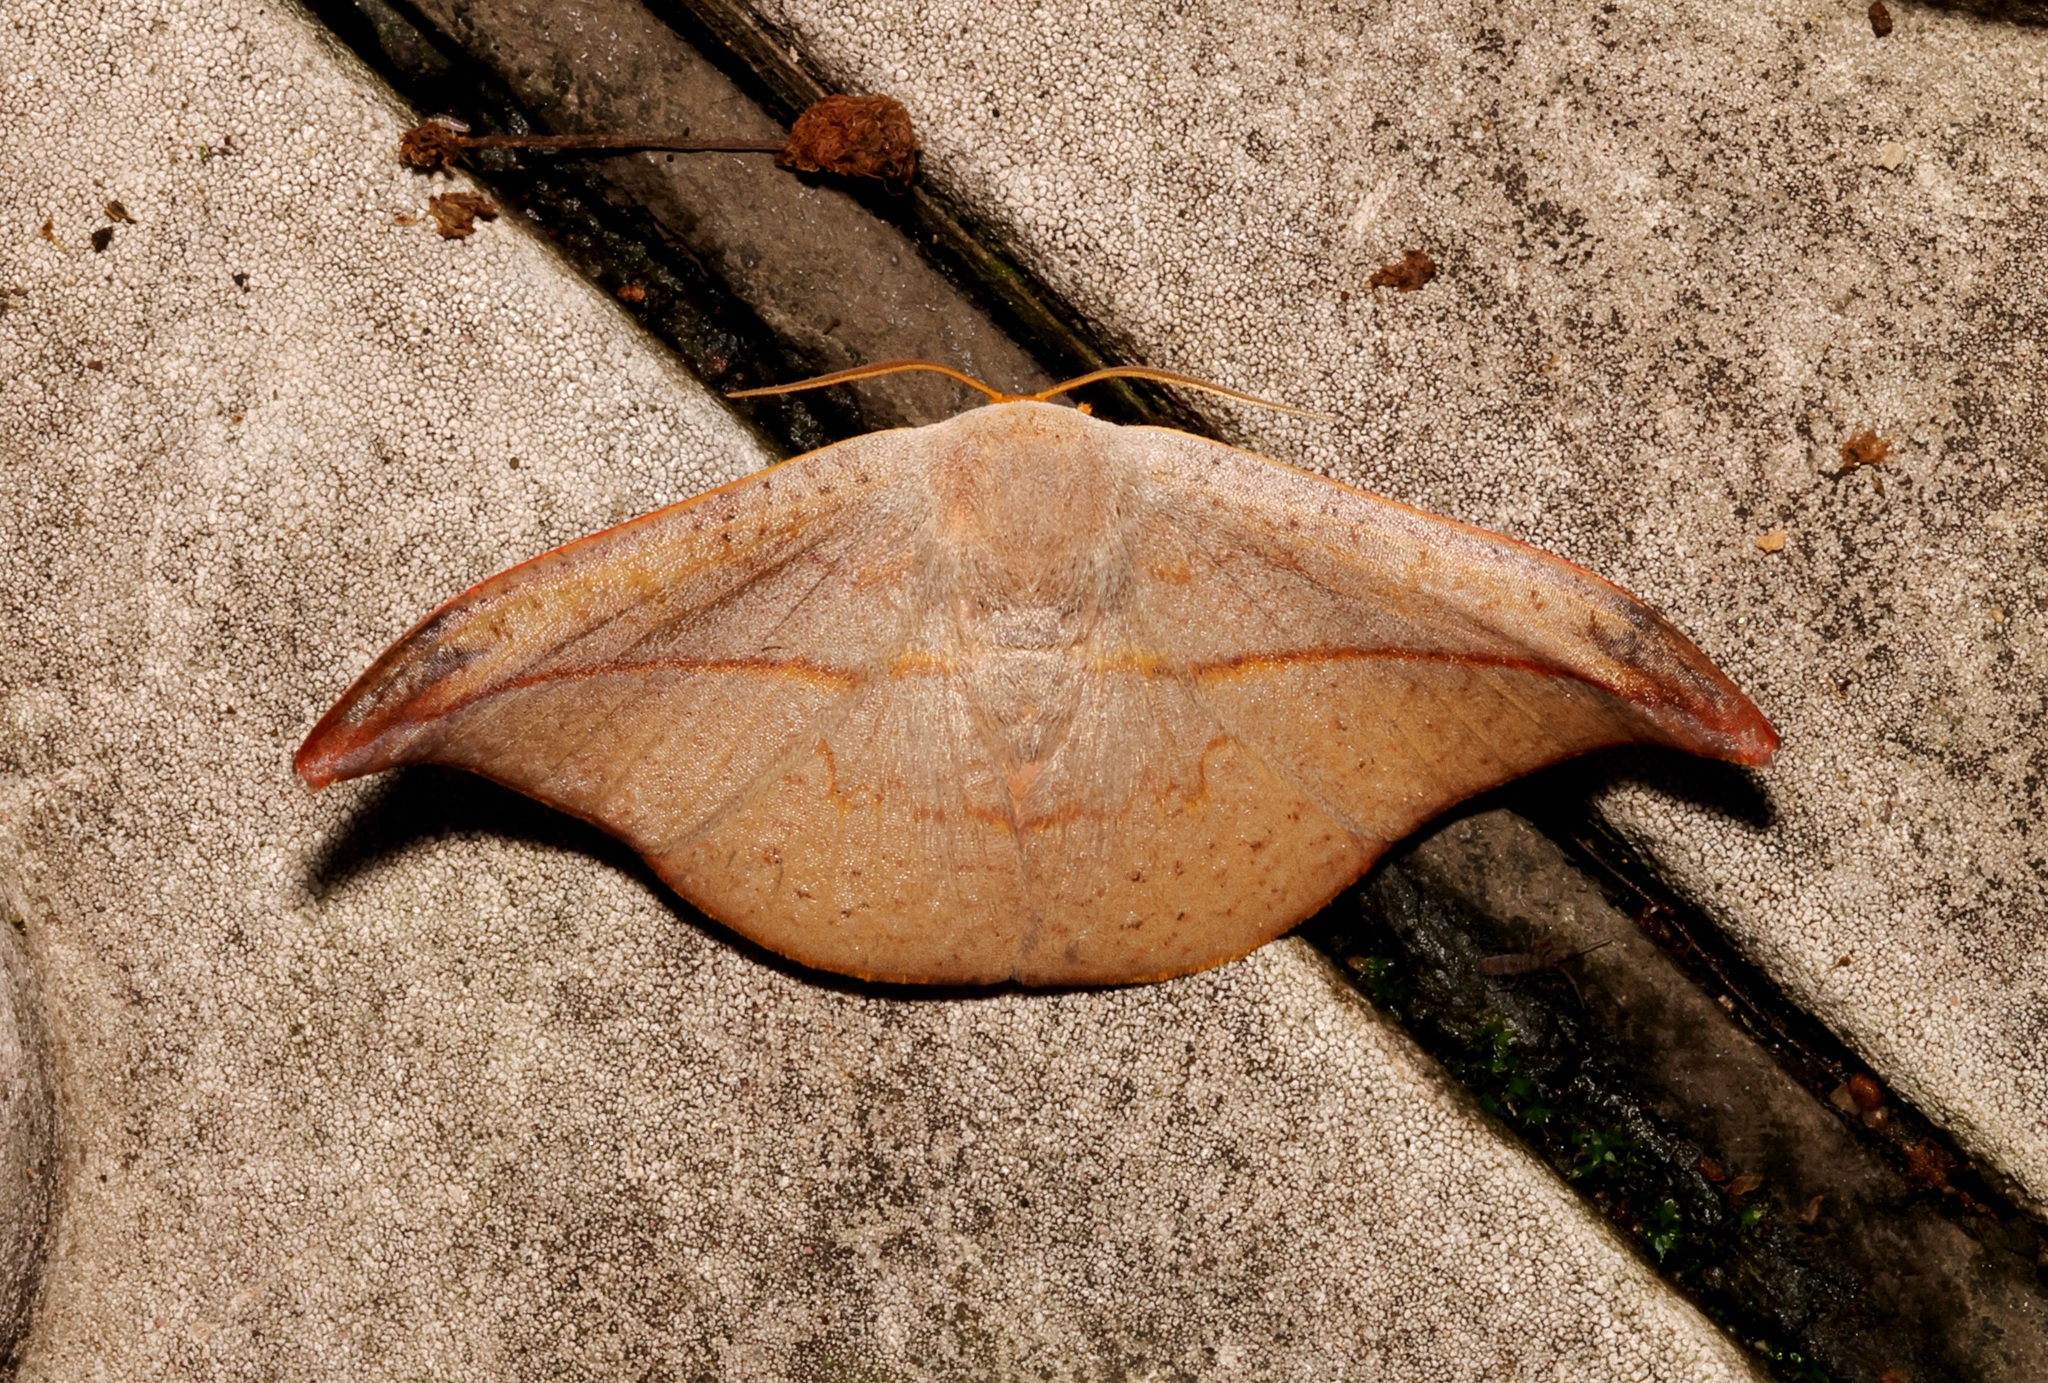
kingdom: Animalia
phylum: Arthropoda
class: Insecta
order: Lepidoptera
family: Drepanidae
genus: Oreta
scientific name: Oreta insignis
